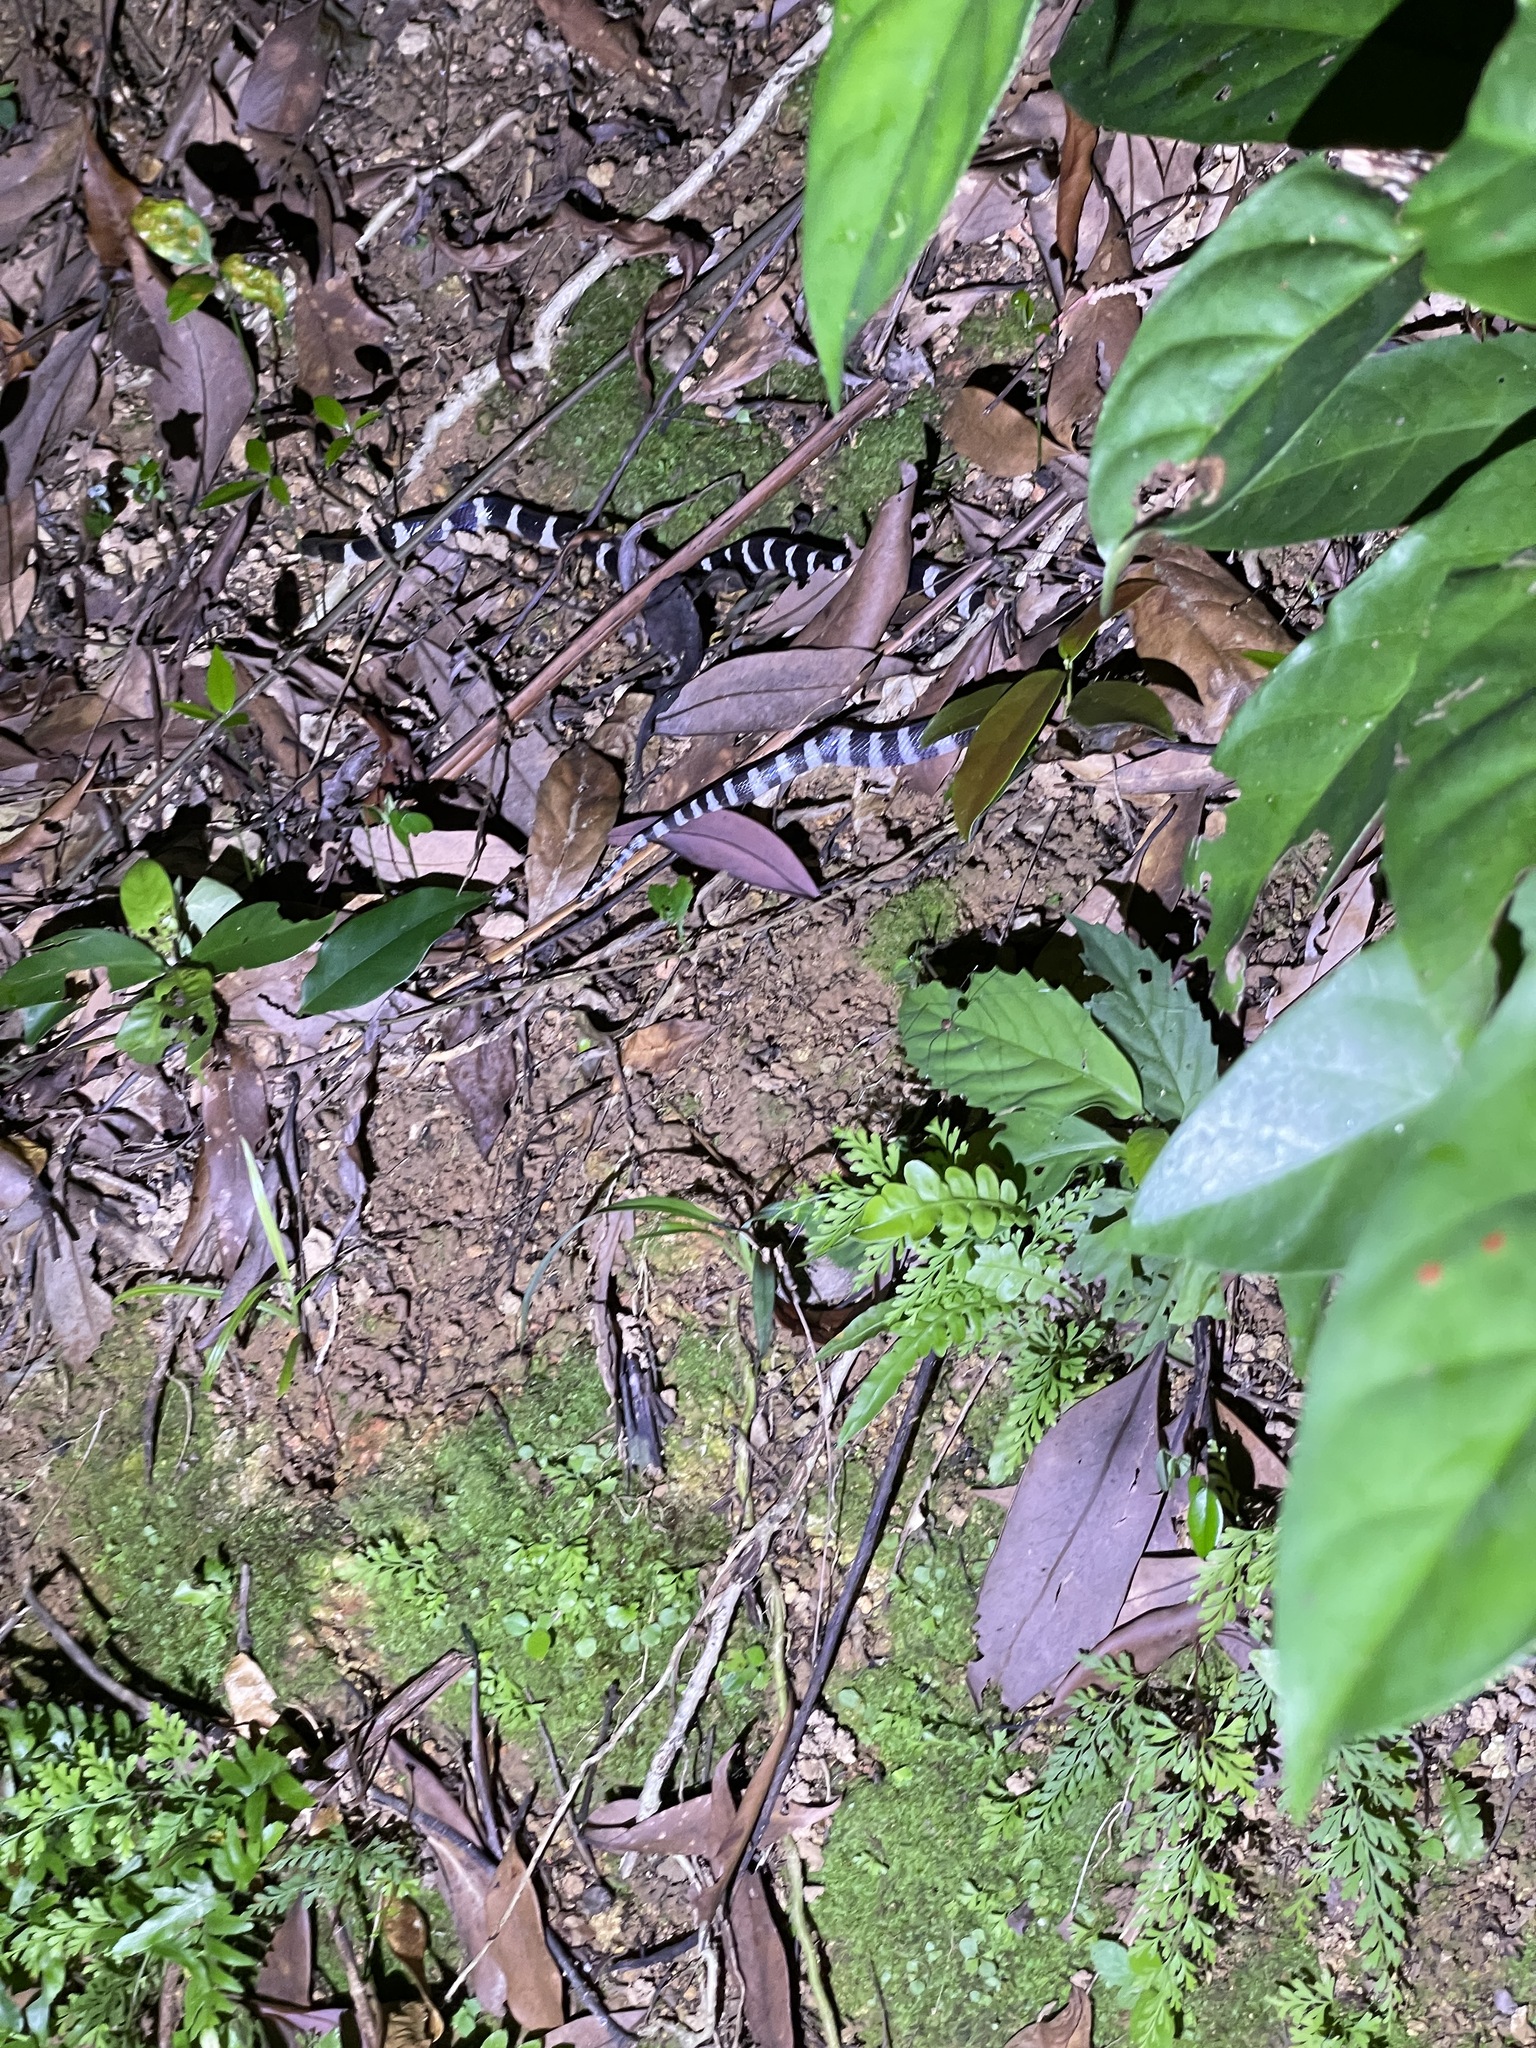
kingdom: Animalia
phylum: Chordata
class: Squamata
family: Elapidae
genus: Bungarus
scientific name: Bungarus multicinctus
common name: Many-banded krait
